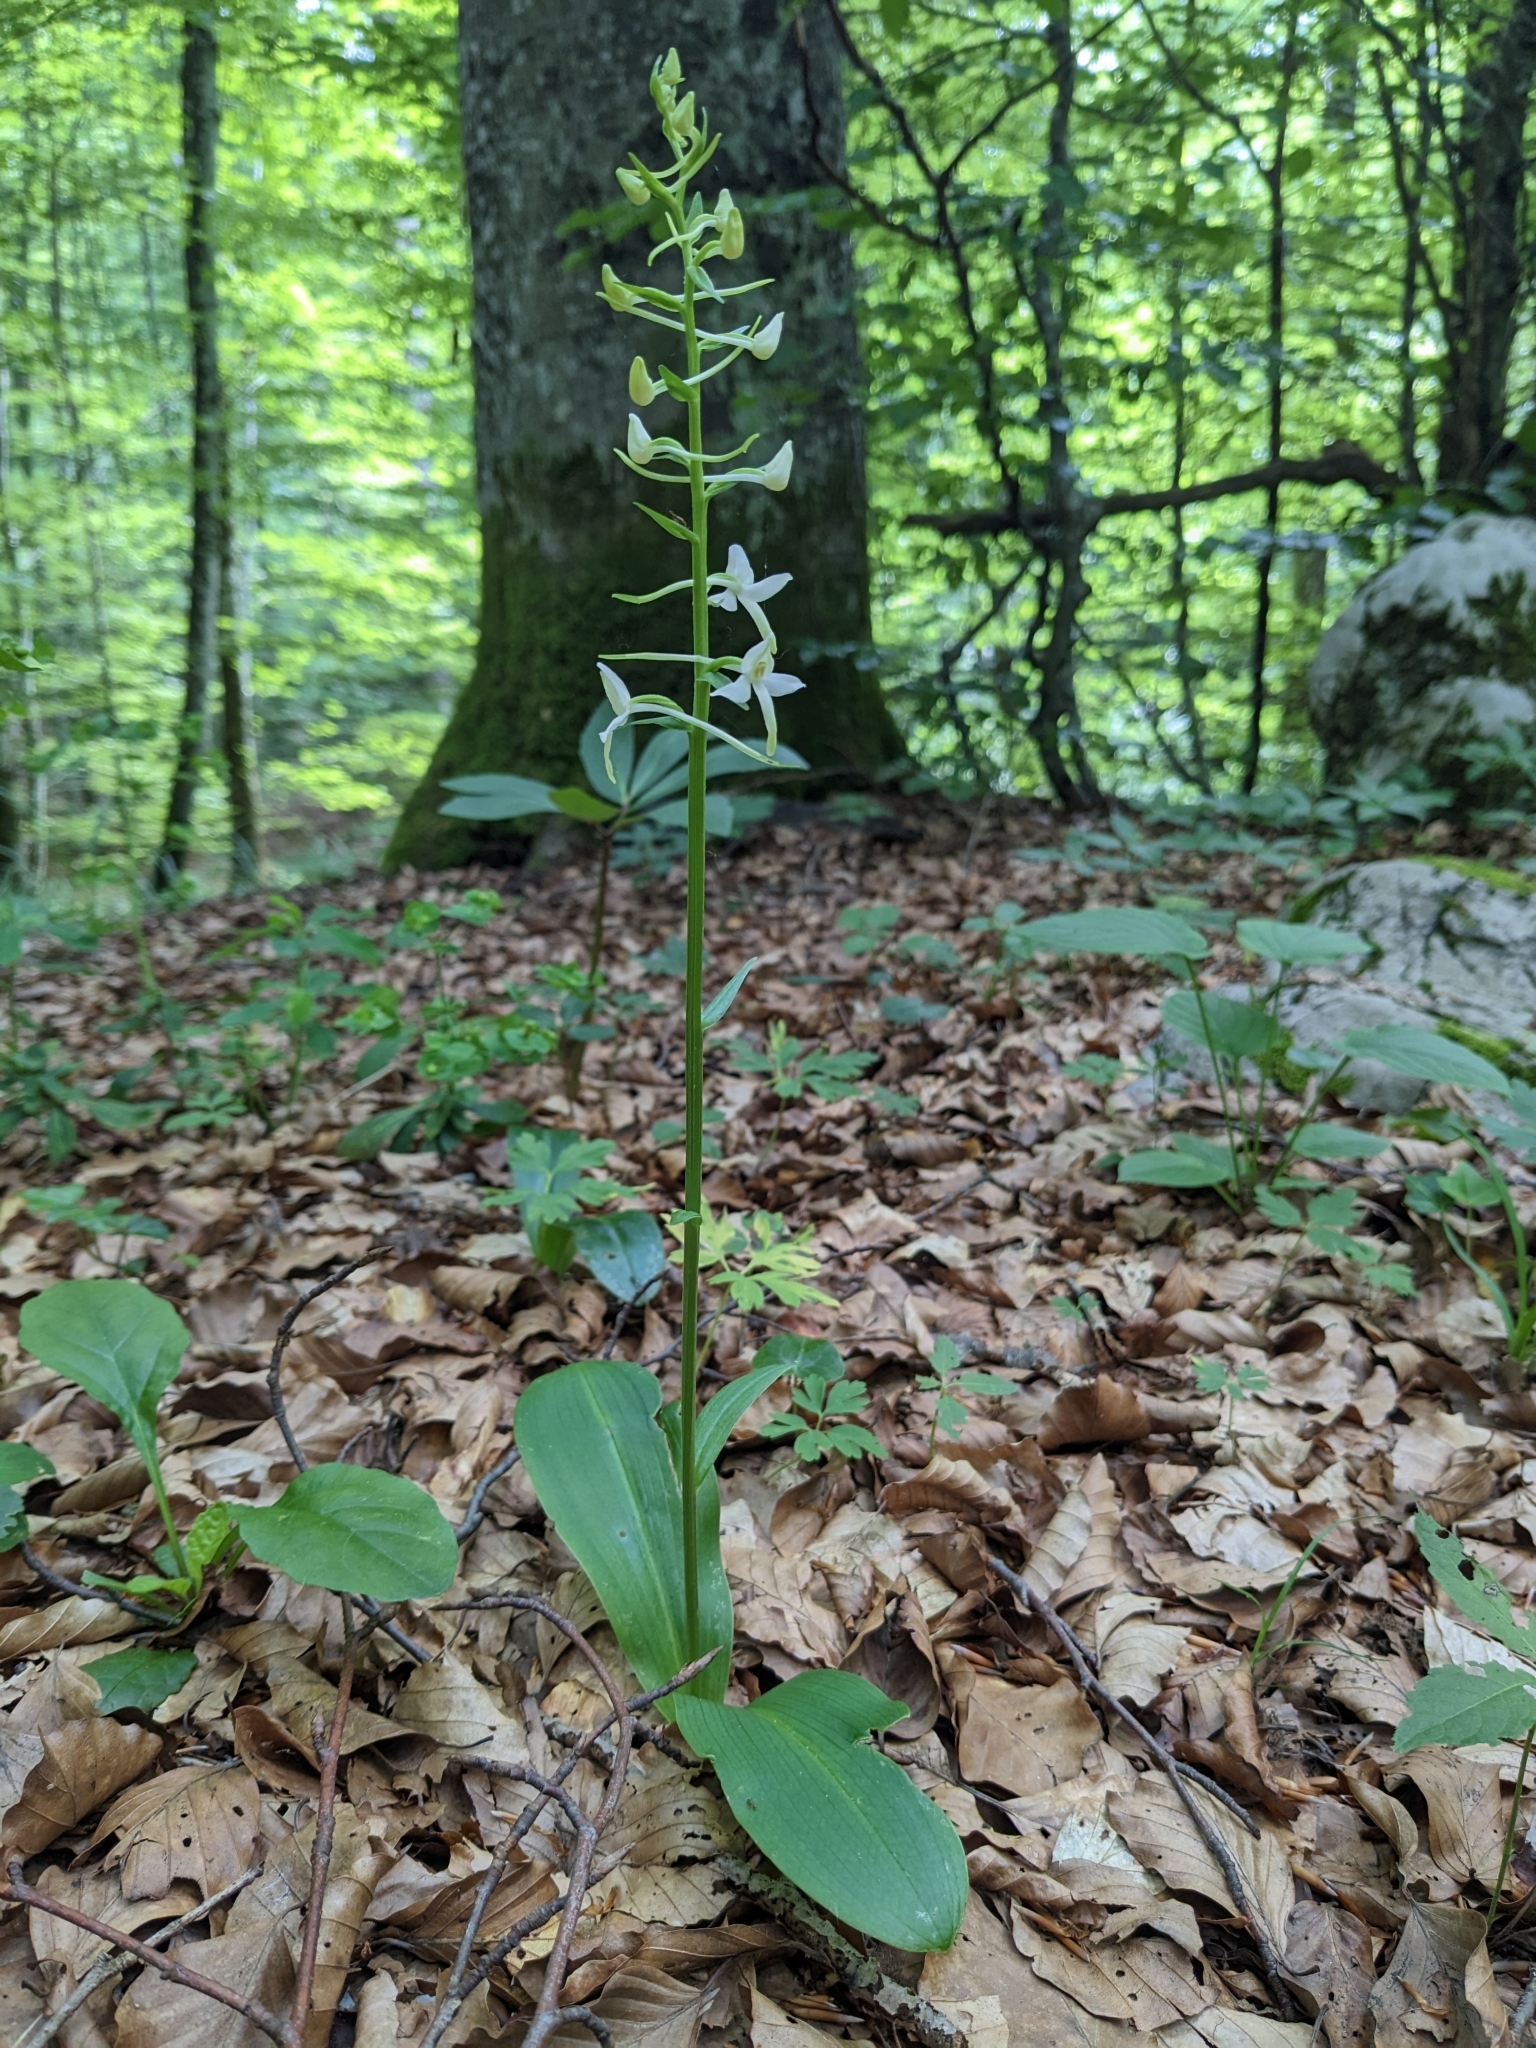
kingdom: Plantae
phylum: Tracheophyta
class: Liliopsida
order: Asparagales
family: Orchidaceae
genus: Platanthera
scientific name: Platanthera bifolia
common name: Lesser butterfly-orchid
